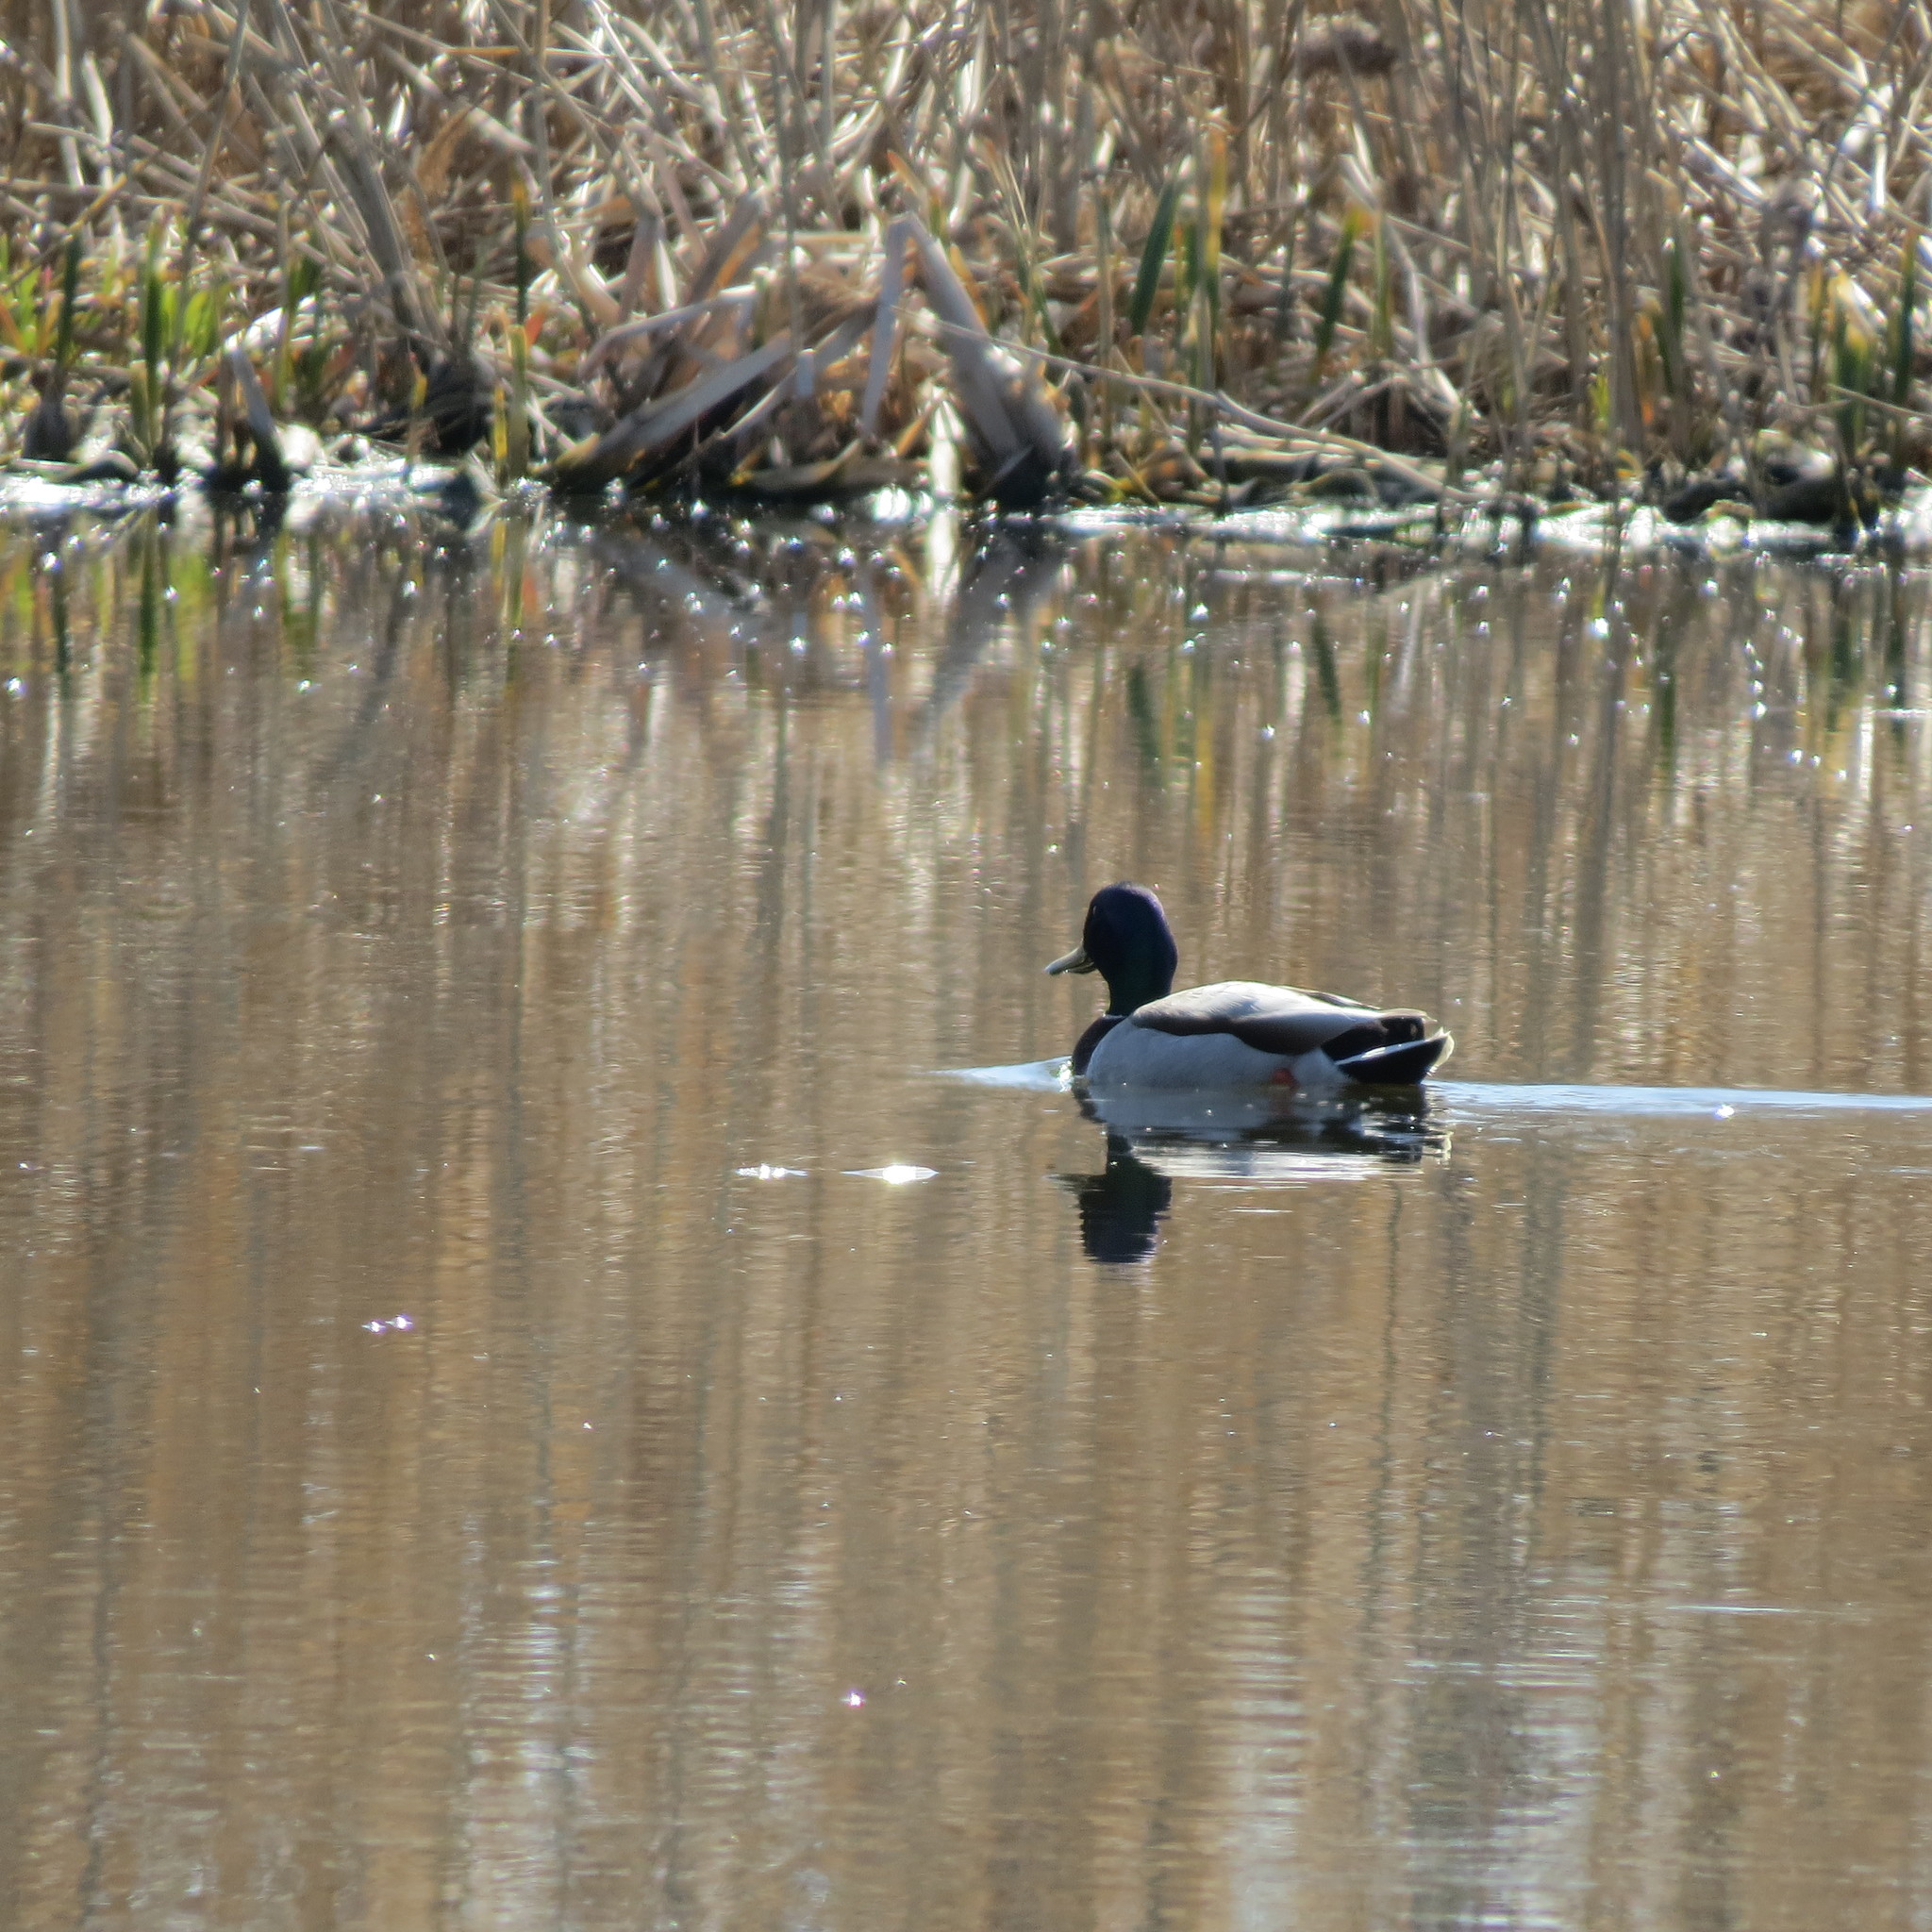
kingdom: Animalia
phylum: Chordata
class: Aves
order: Anseriformes
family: Anatidae
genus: Anas
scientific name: Anas platyrhynchos
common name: Mallard
